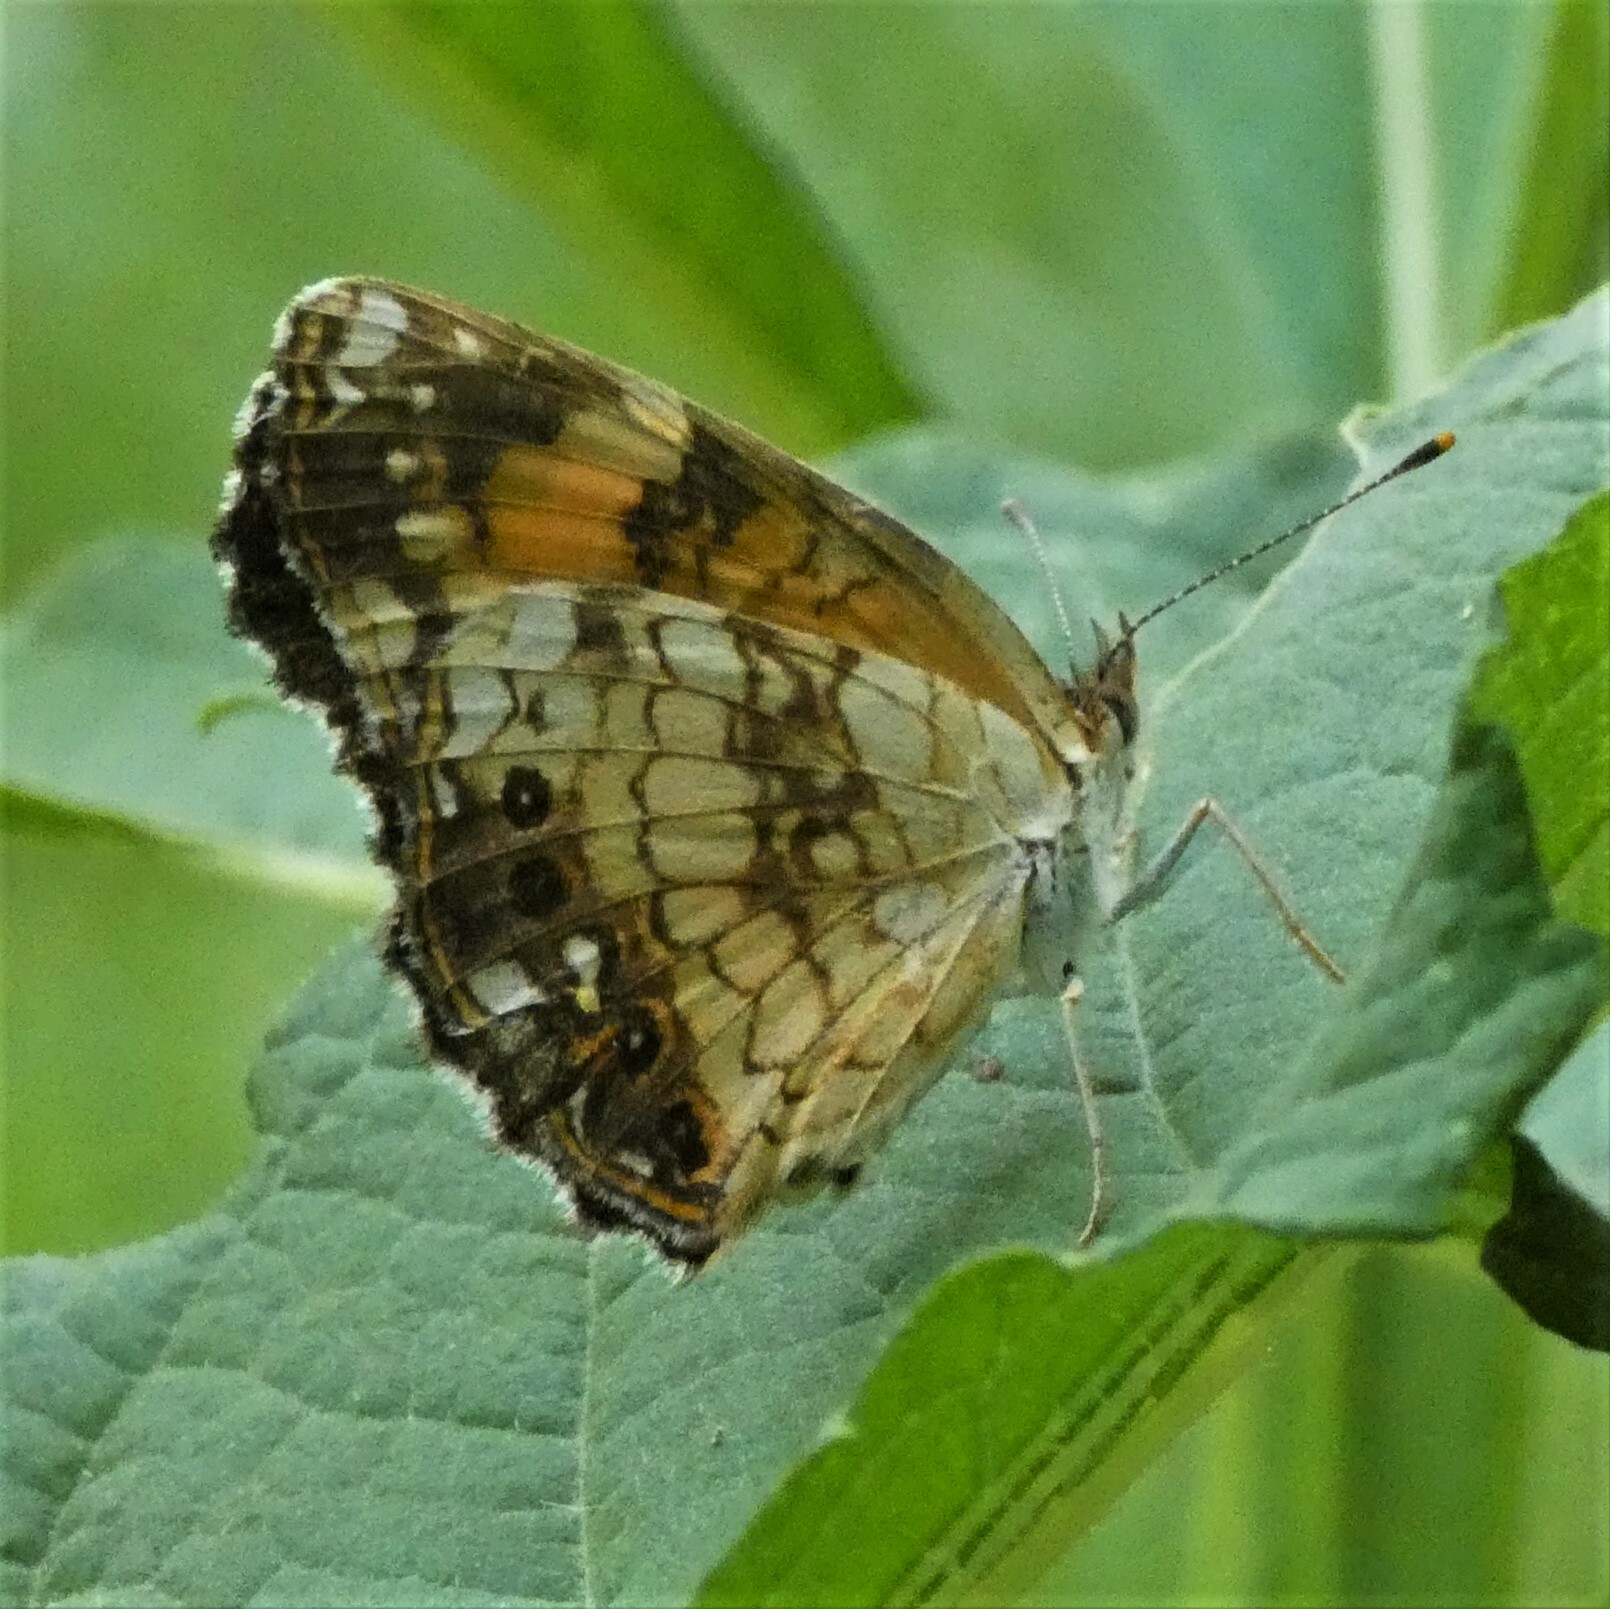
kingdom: Animalia
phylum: Arthropoda
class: Insecta
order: Lepidoptera
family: Nymphalidae
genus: Chlosyne
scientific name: Chlosyne nycteis
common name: Silvery checkerspot
